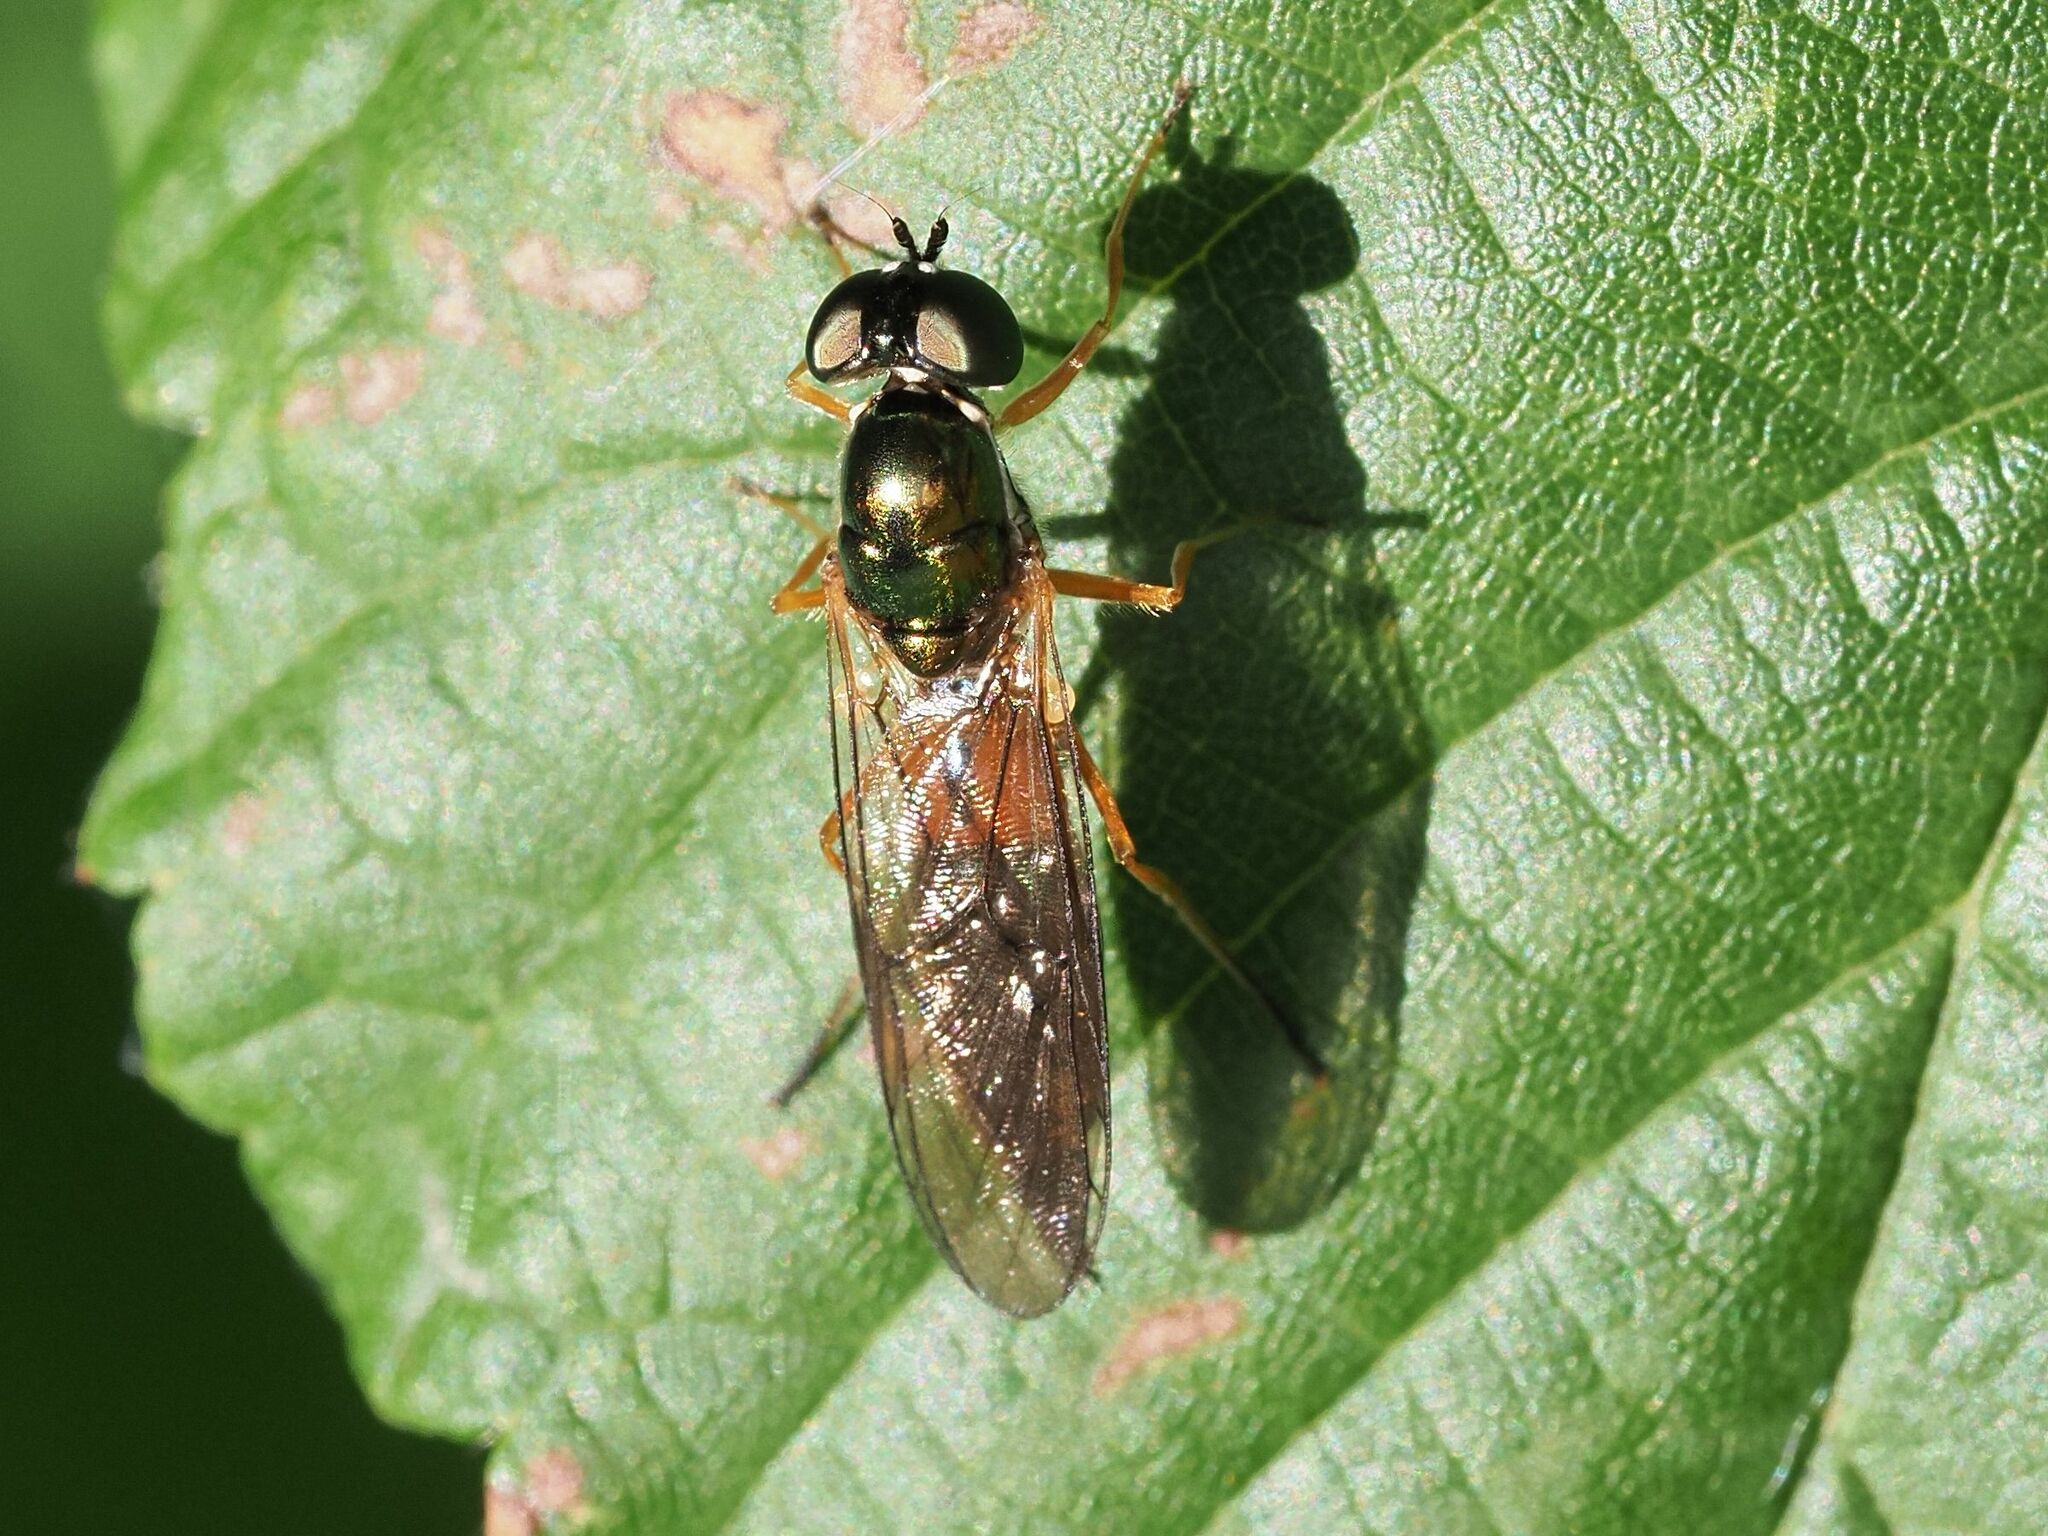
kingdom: Animalia
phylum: Arthropoda
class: Insecta
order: Diptera
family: Stratiomyidae
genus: Sargus
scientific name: Sargus bipunctatus
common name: Twin-spot centurion
